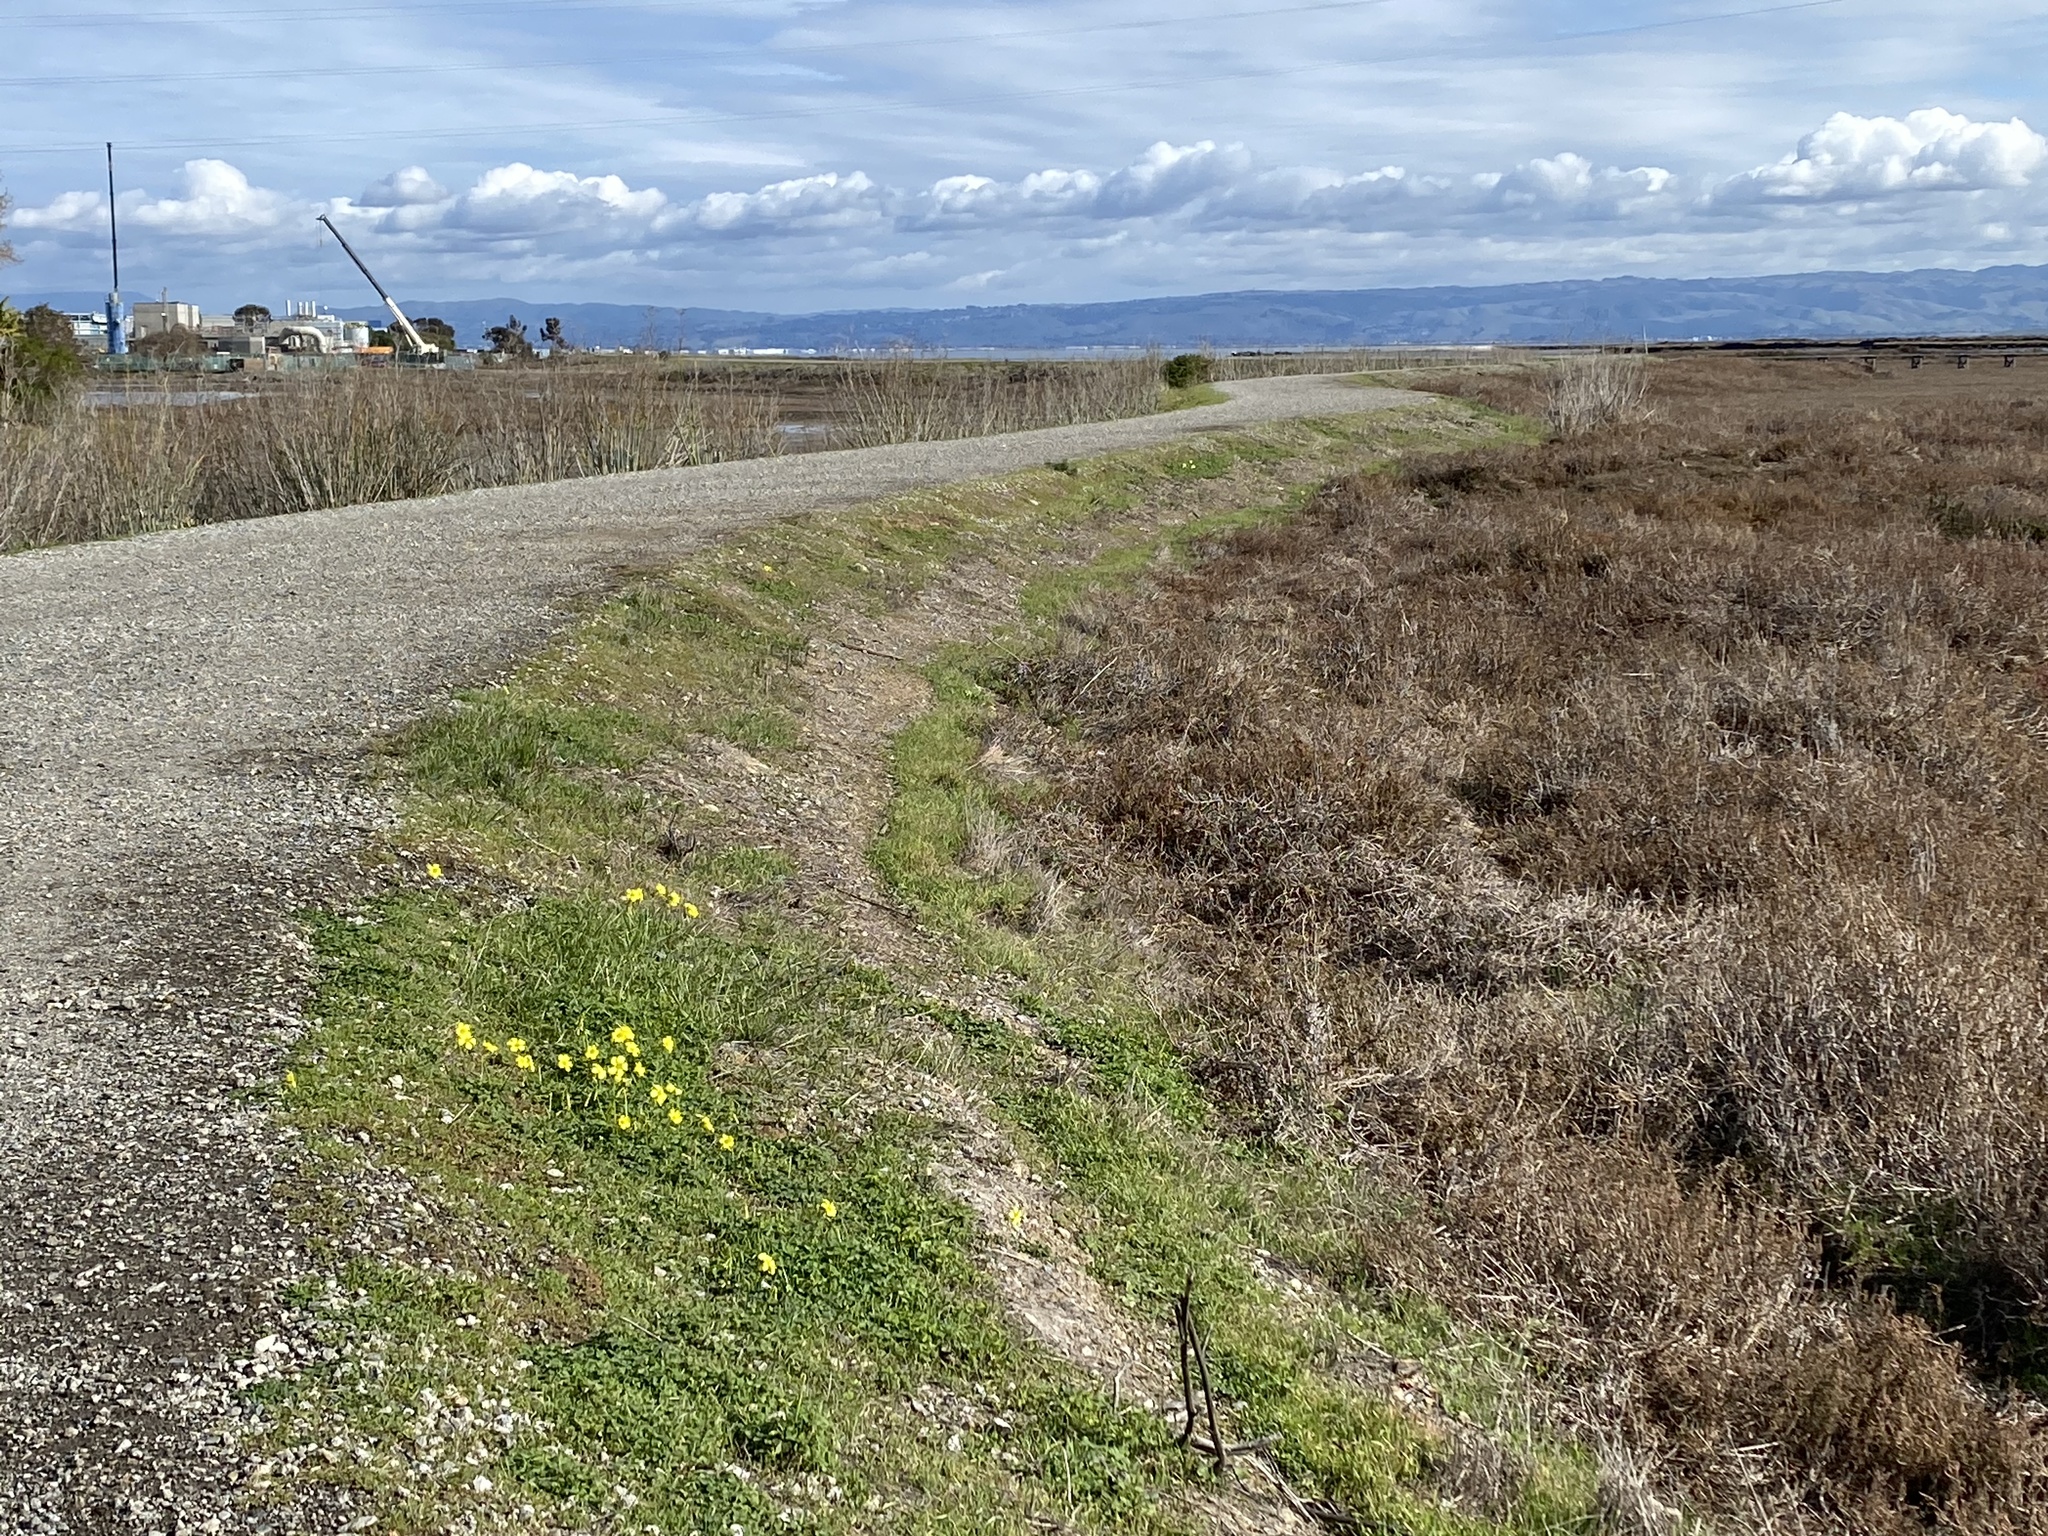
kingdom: Plantae
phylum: Tracheophyta
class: Magnoliopsida
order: Oxalidales
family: Oxalidaceae
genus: Oxalis
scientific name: Oxalis pes-caprae
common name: Bermuda-buttercup
